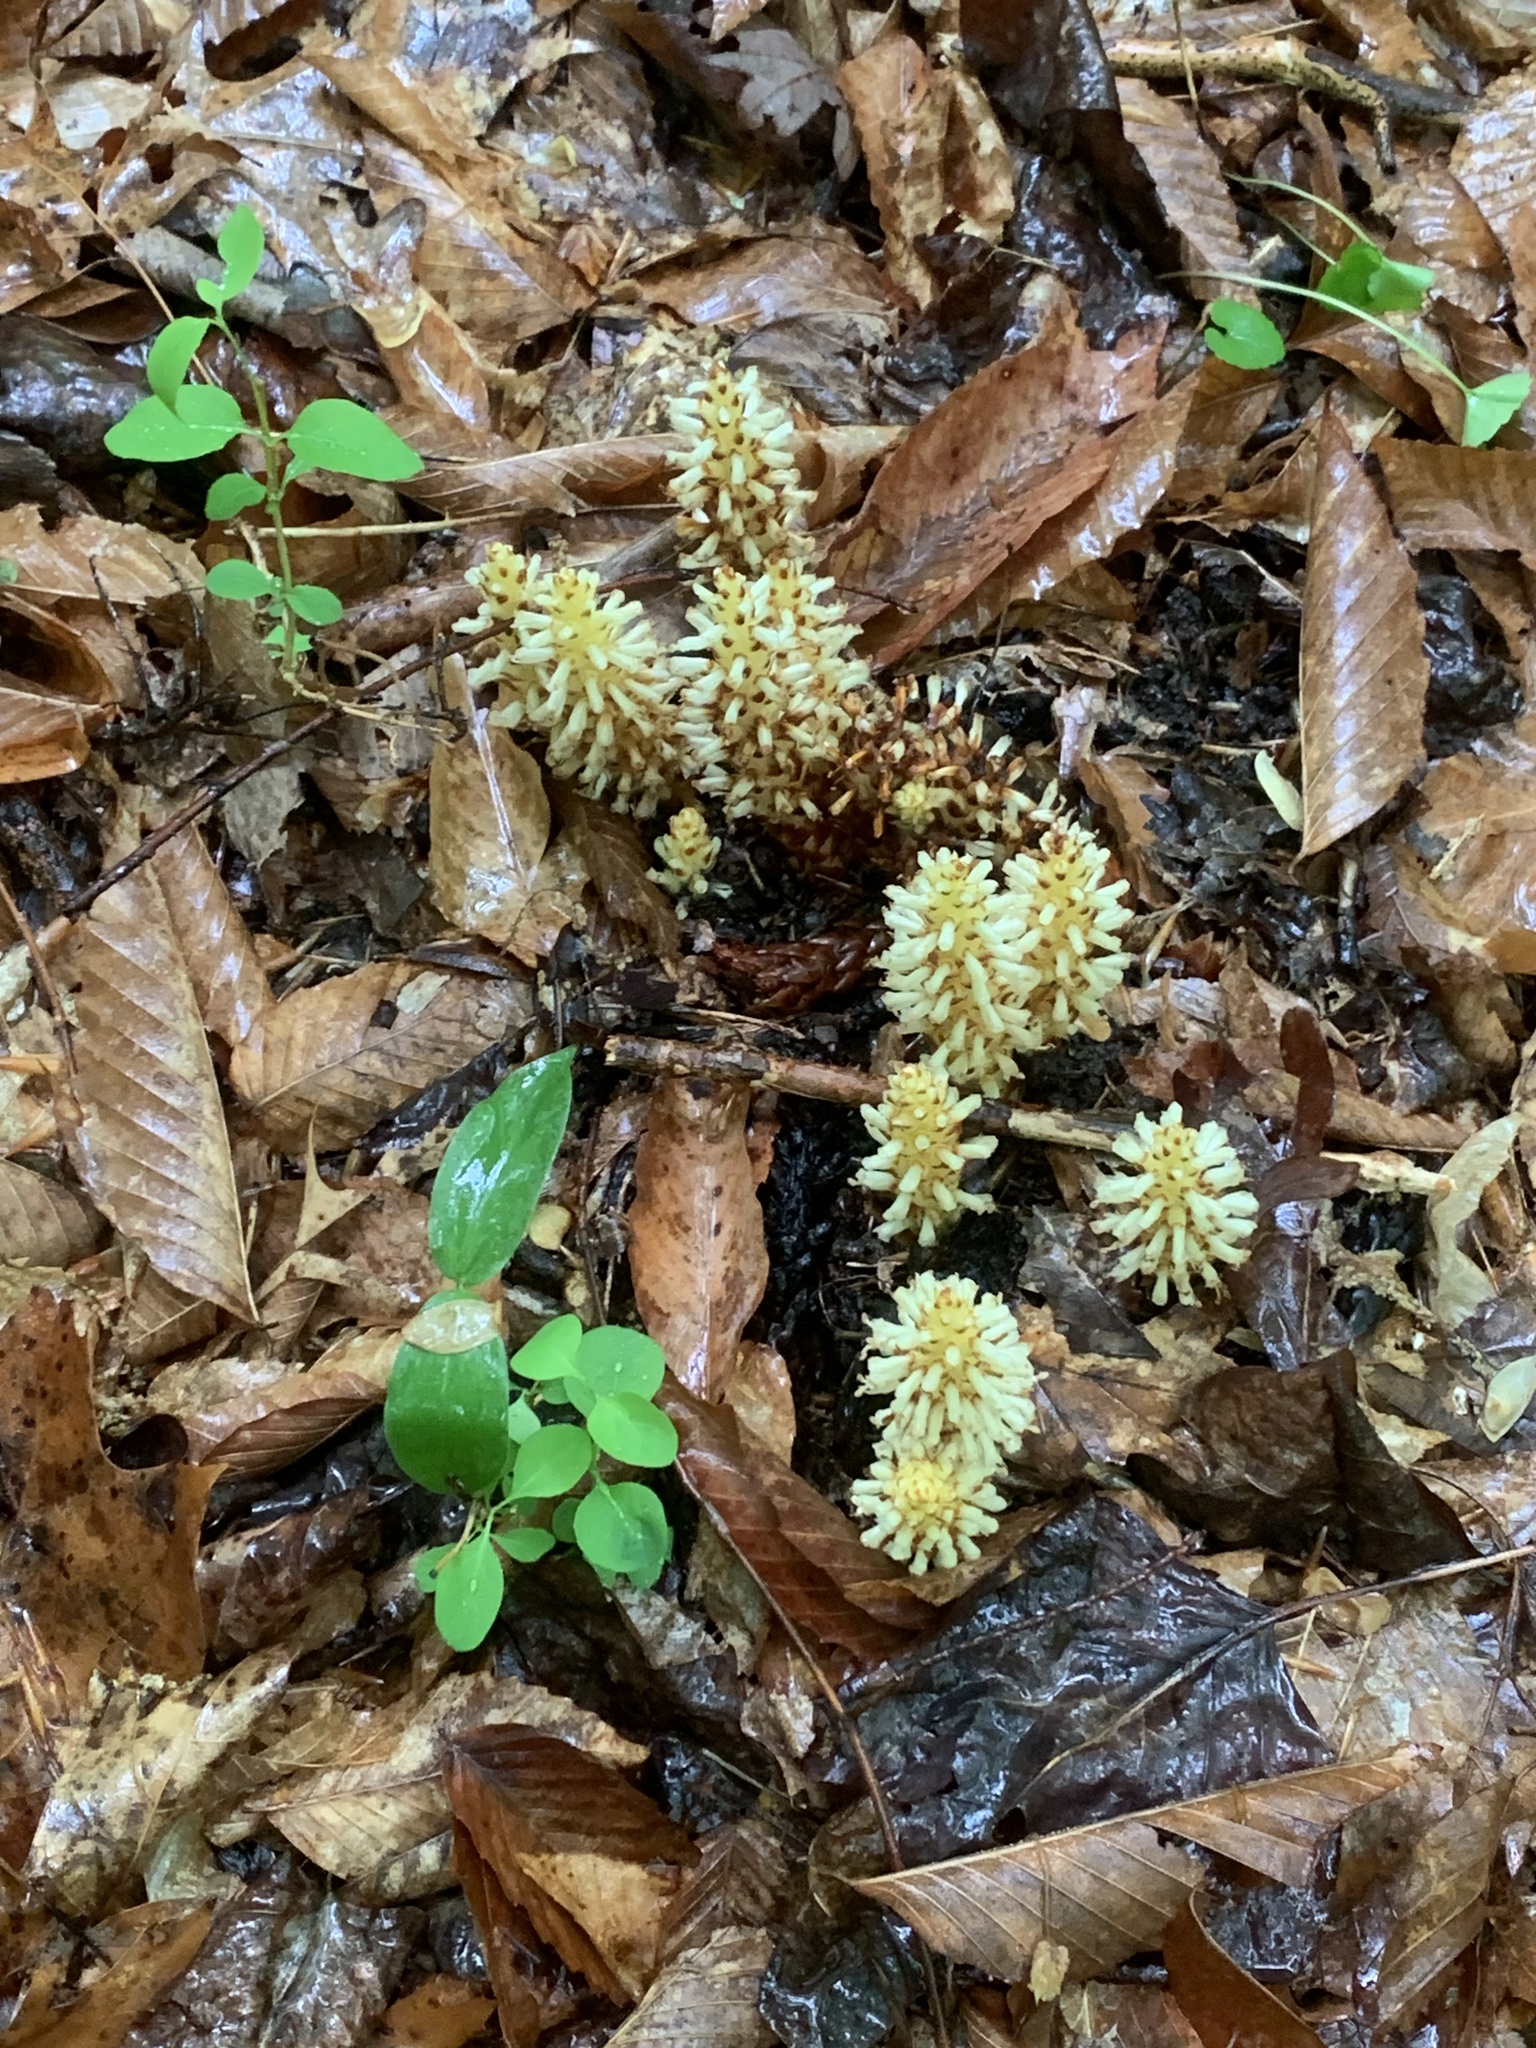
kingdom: Plantae
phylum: Tracheophyta
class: Magnoliopsida
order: Lamiales
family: Orobanchaceae
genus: Conopholis
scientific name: Conopholis americana
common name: American cancer-root
